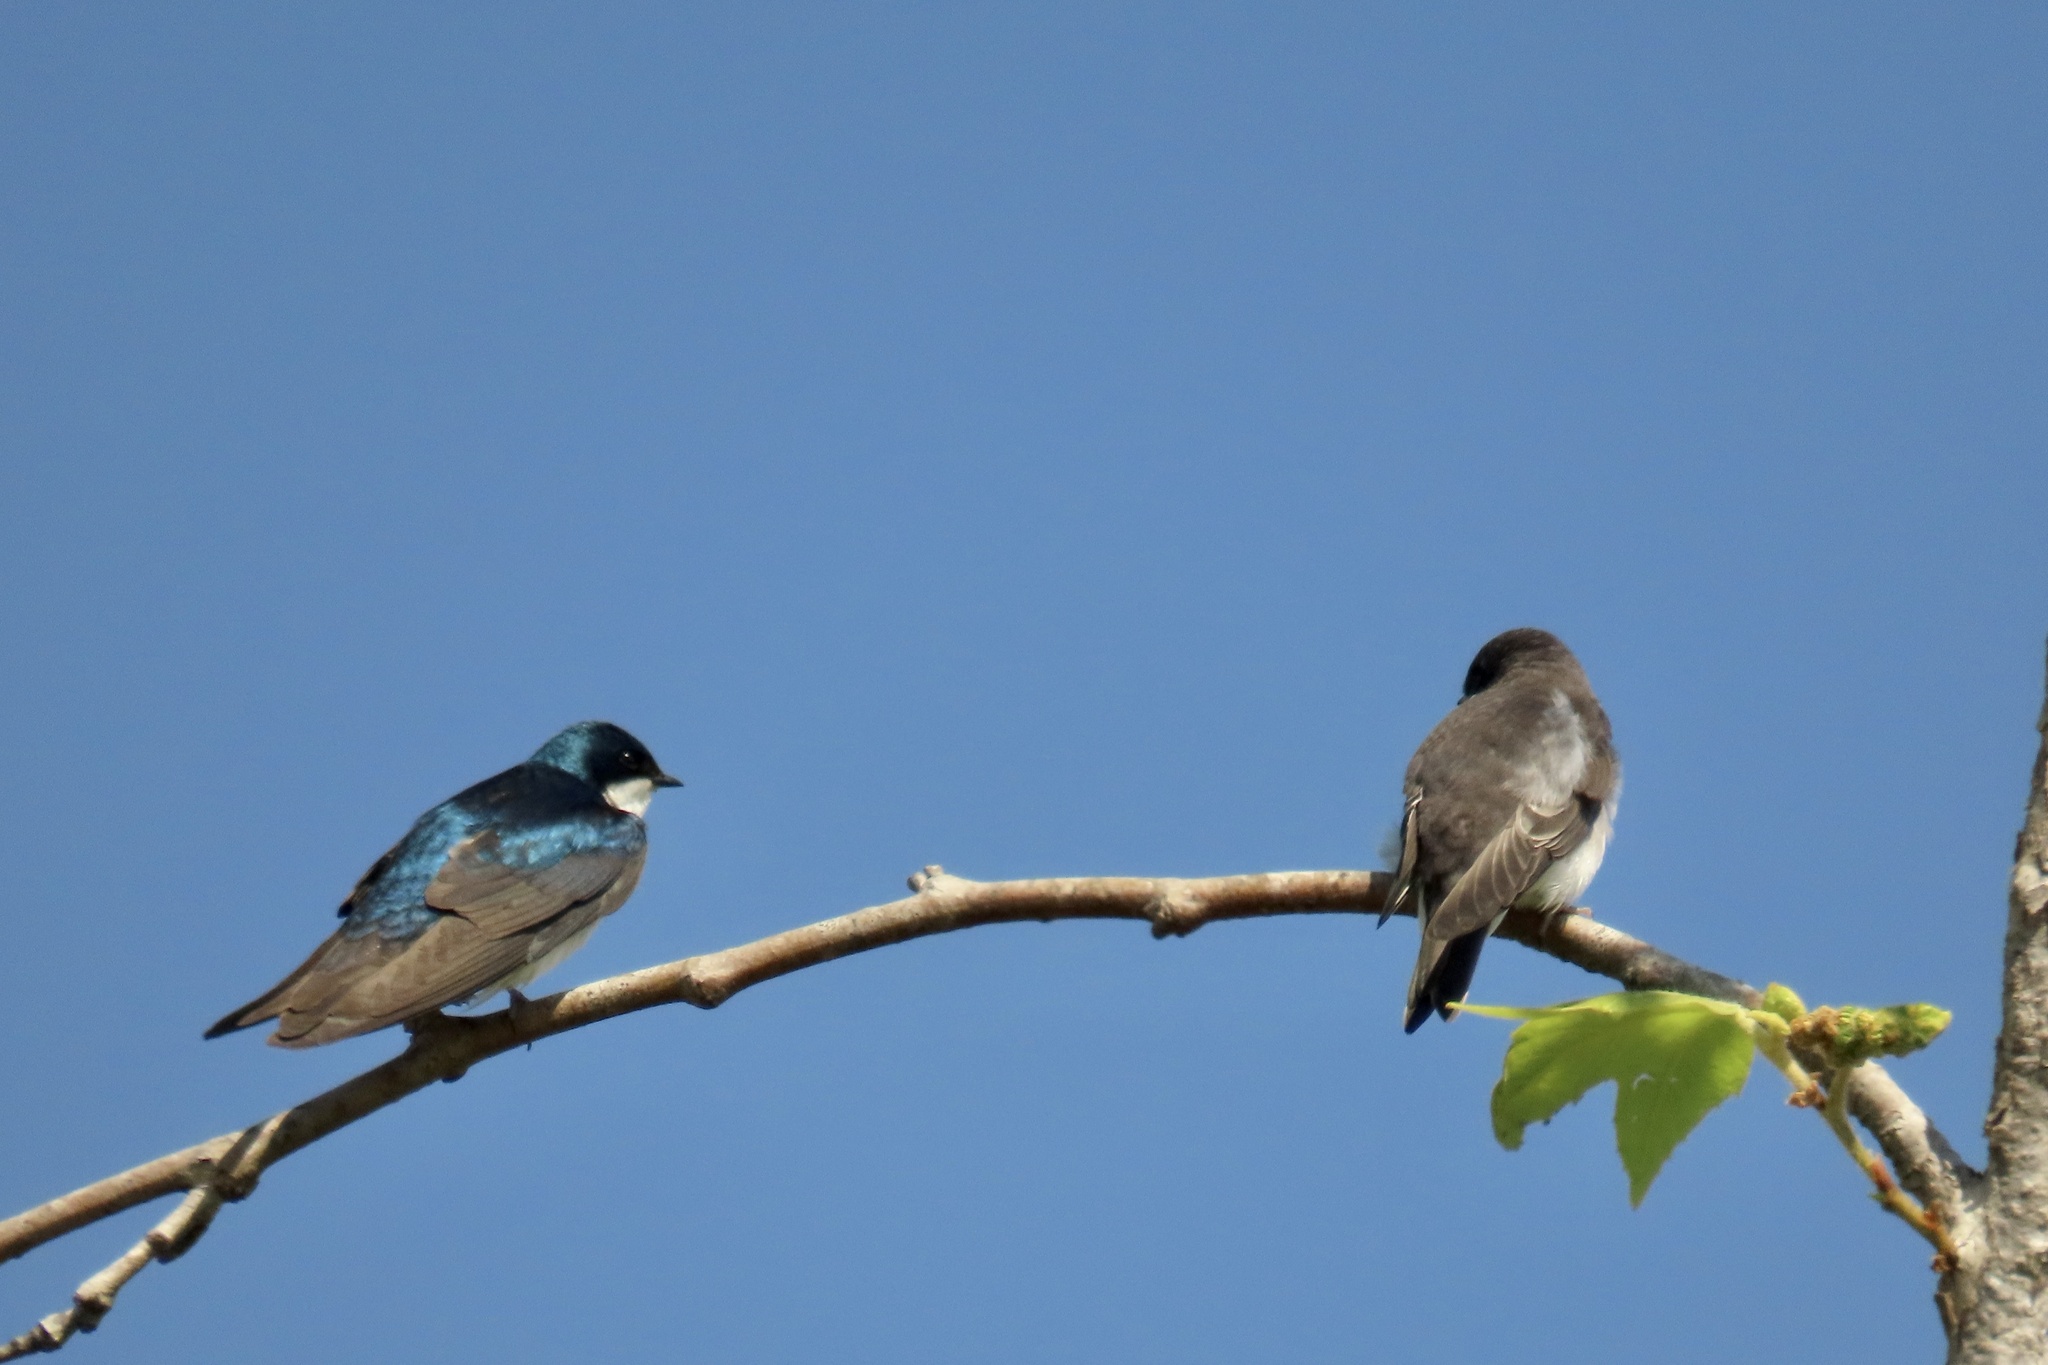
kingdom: Animalia
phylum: Chordata
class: Aves
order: Passeriformes
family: Hirundinidae
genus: Tachycineta
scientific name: Tachycineta bicolor
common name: Tree swallow
